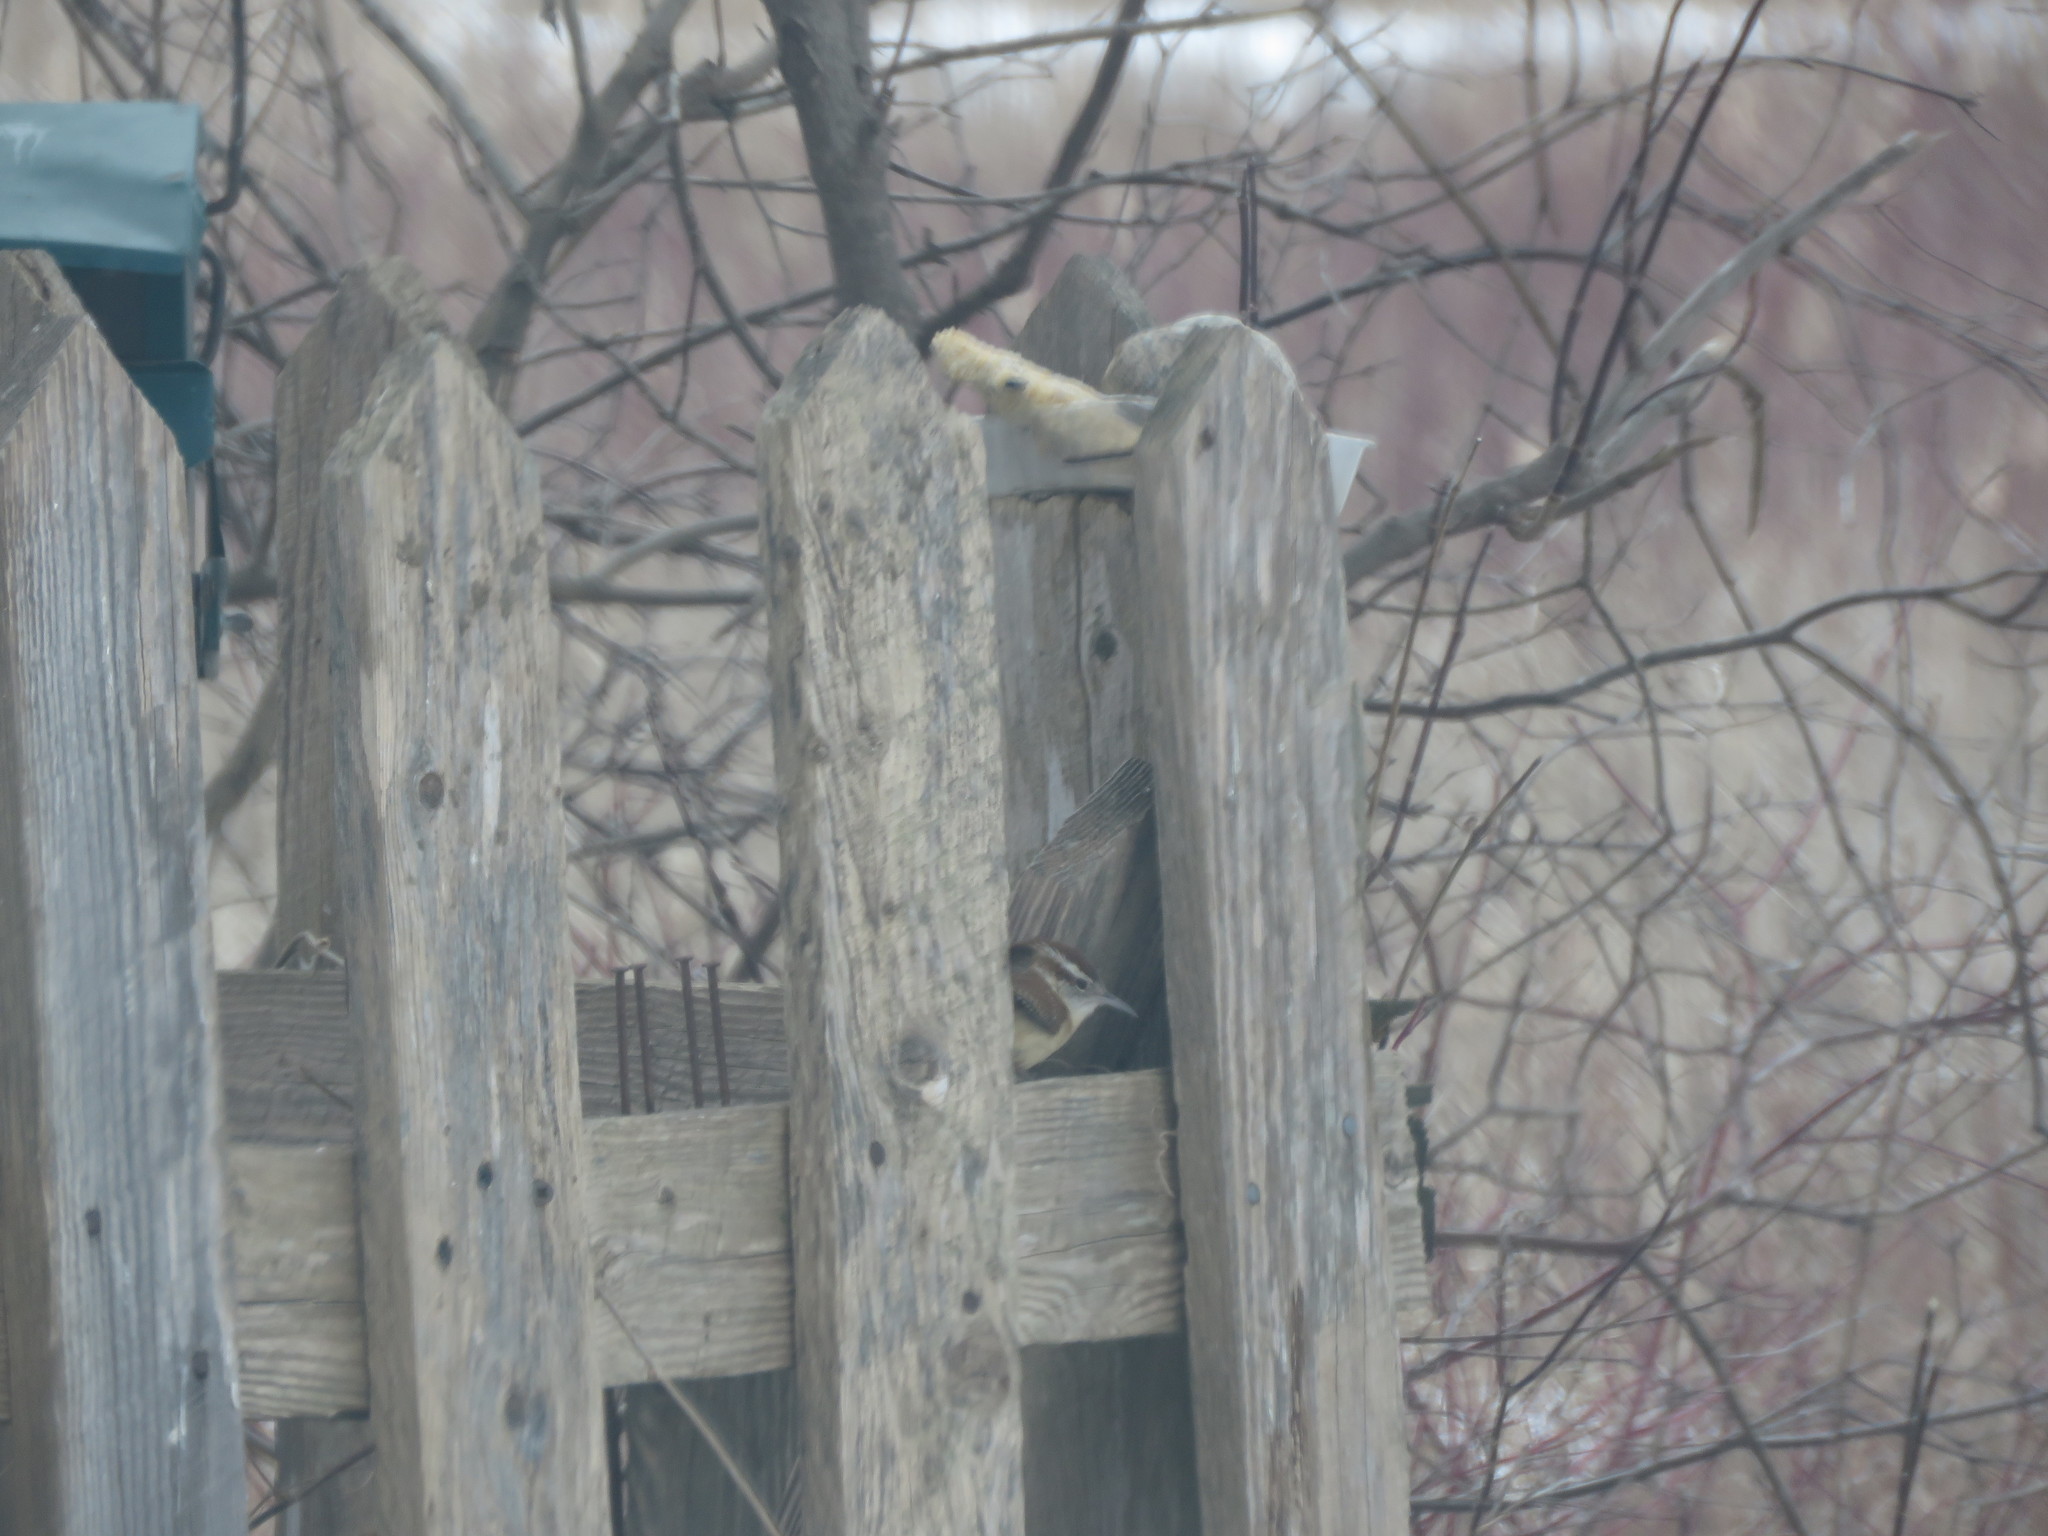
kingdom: Animalia
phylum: Chordata
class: Aves
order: Passeriformes
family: Troglodytidae
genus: Thryothorus
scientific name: Thryothorus ludovicianus
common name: Carolina wren
